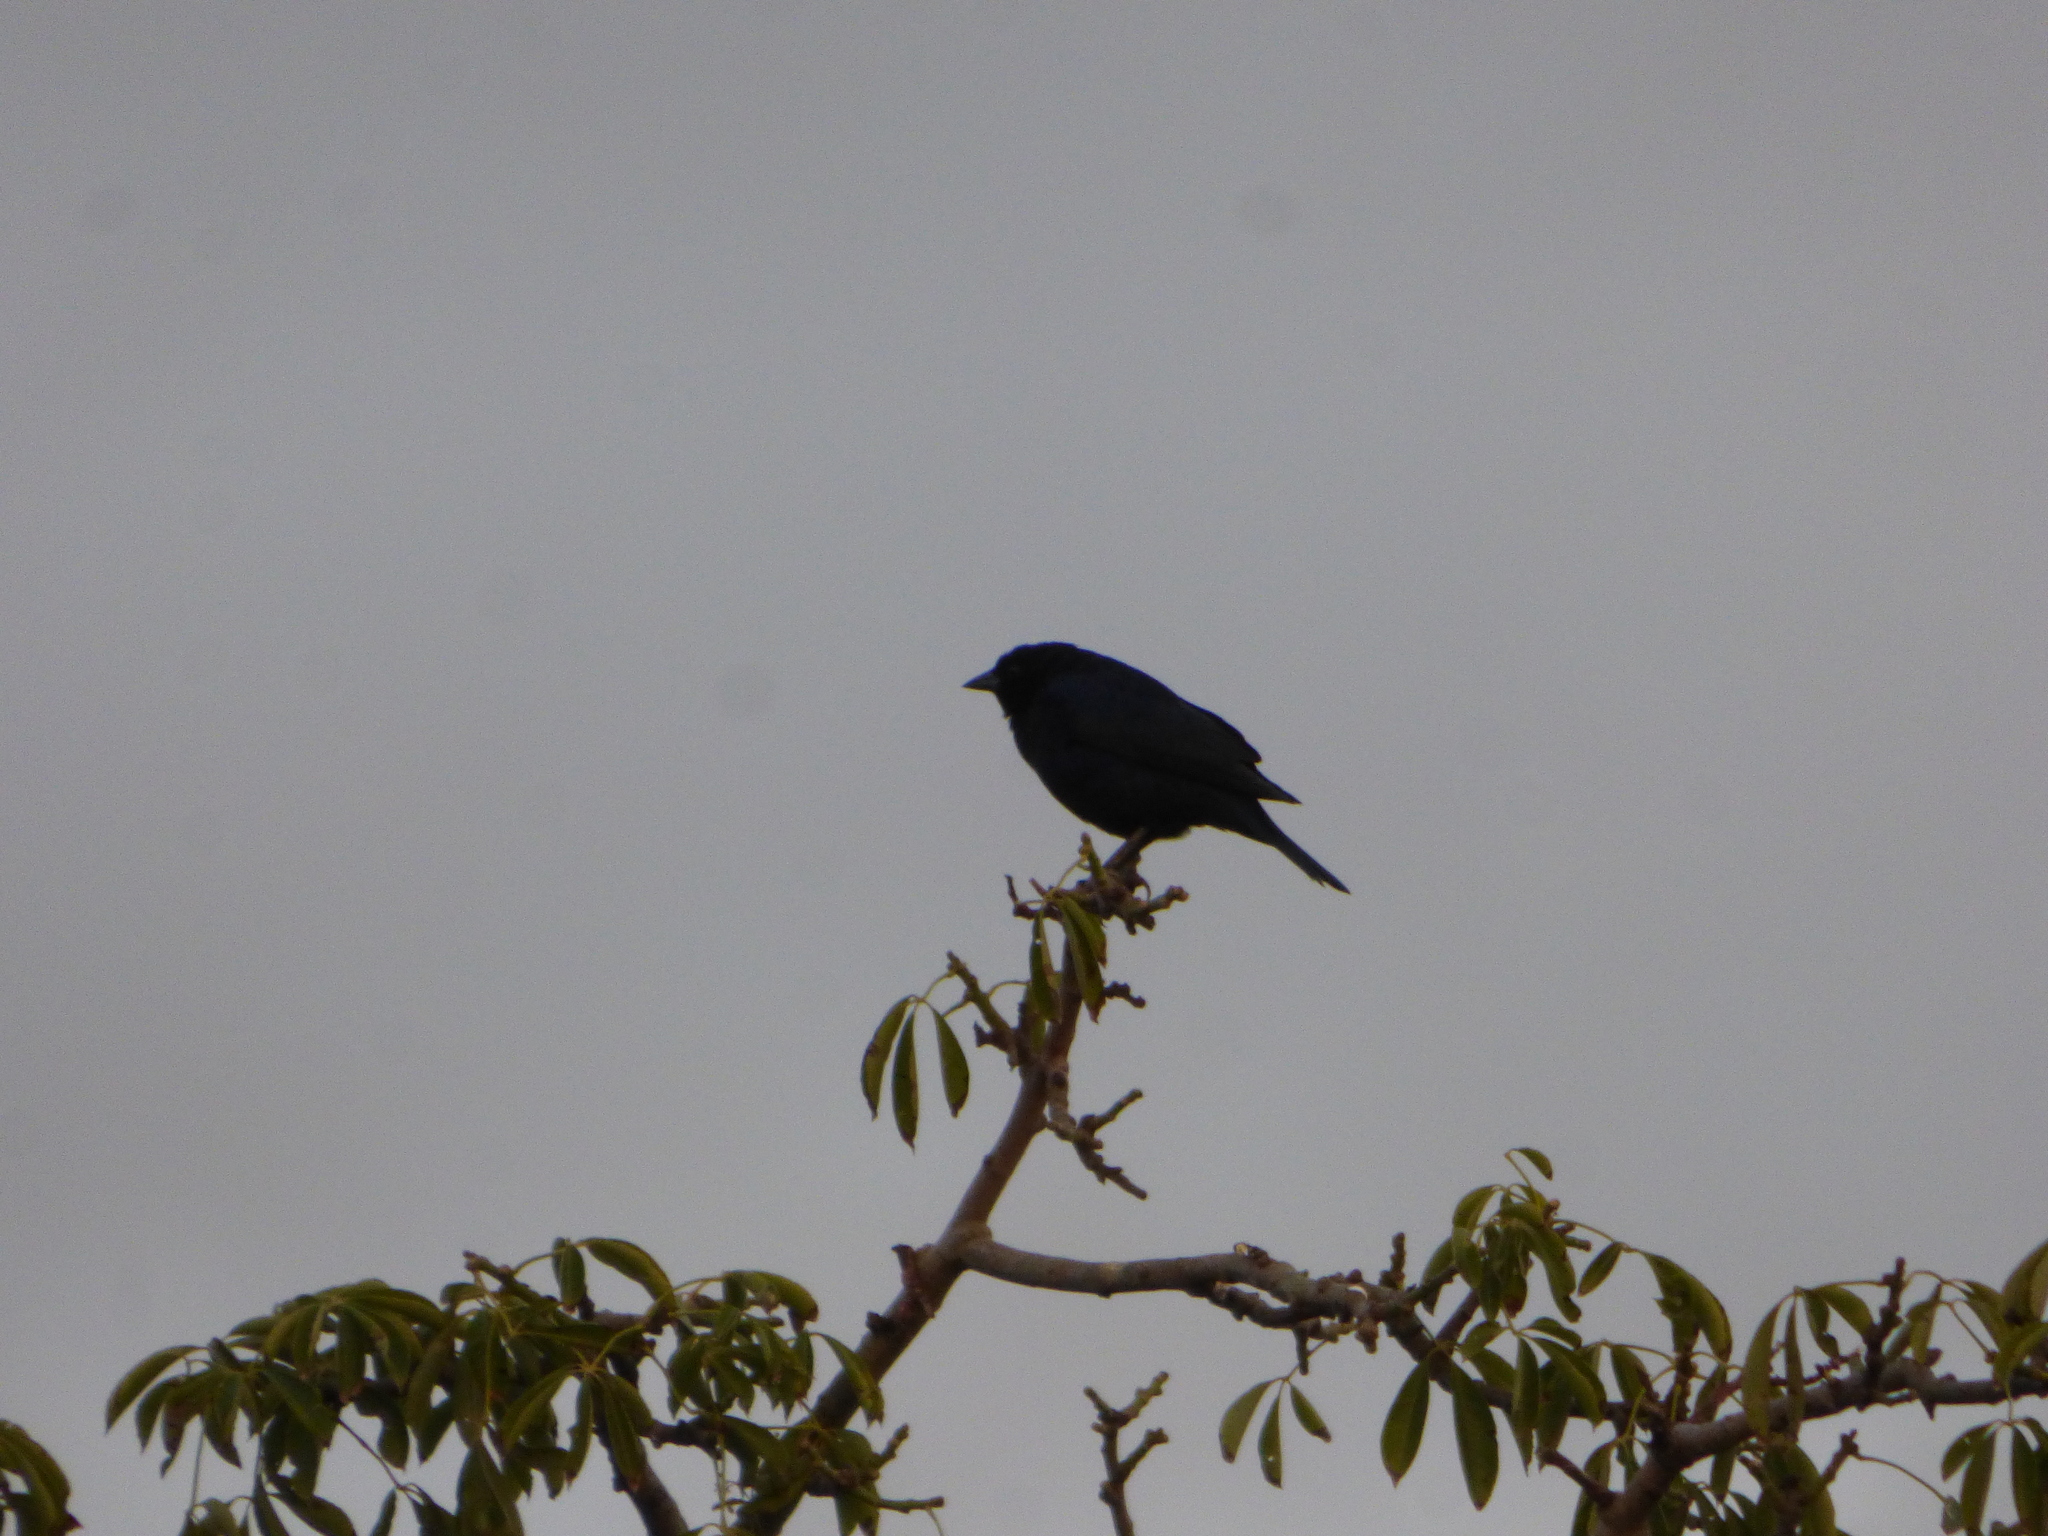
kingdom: Animalia
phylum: Chordata
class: Aves
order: Passeriformes
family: Icteridae
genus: Molothrus
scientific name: Molothrus bonariensis
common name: Shiny cowbird
